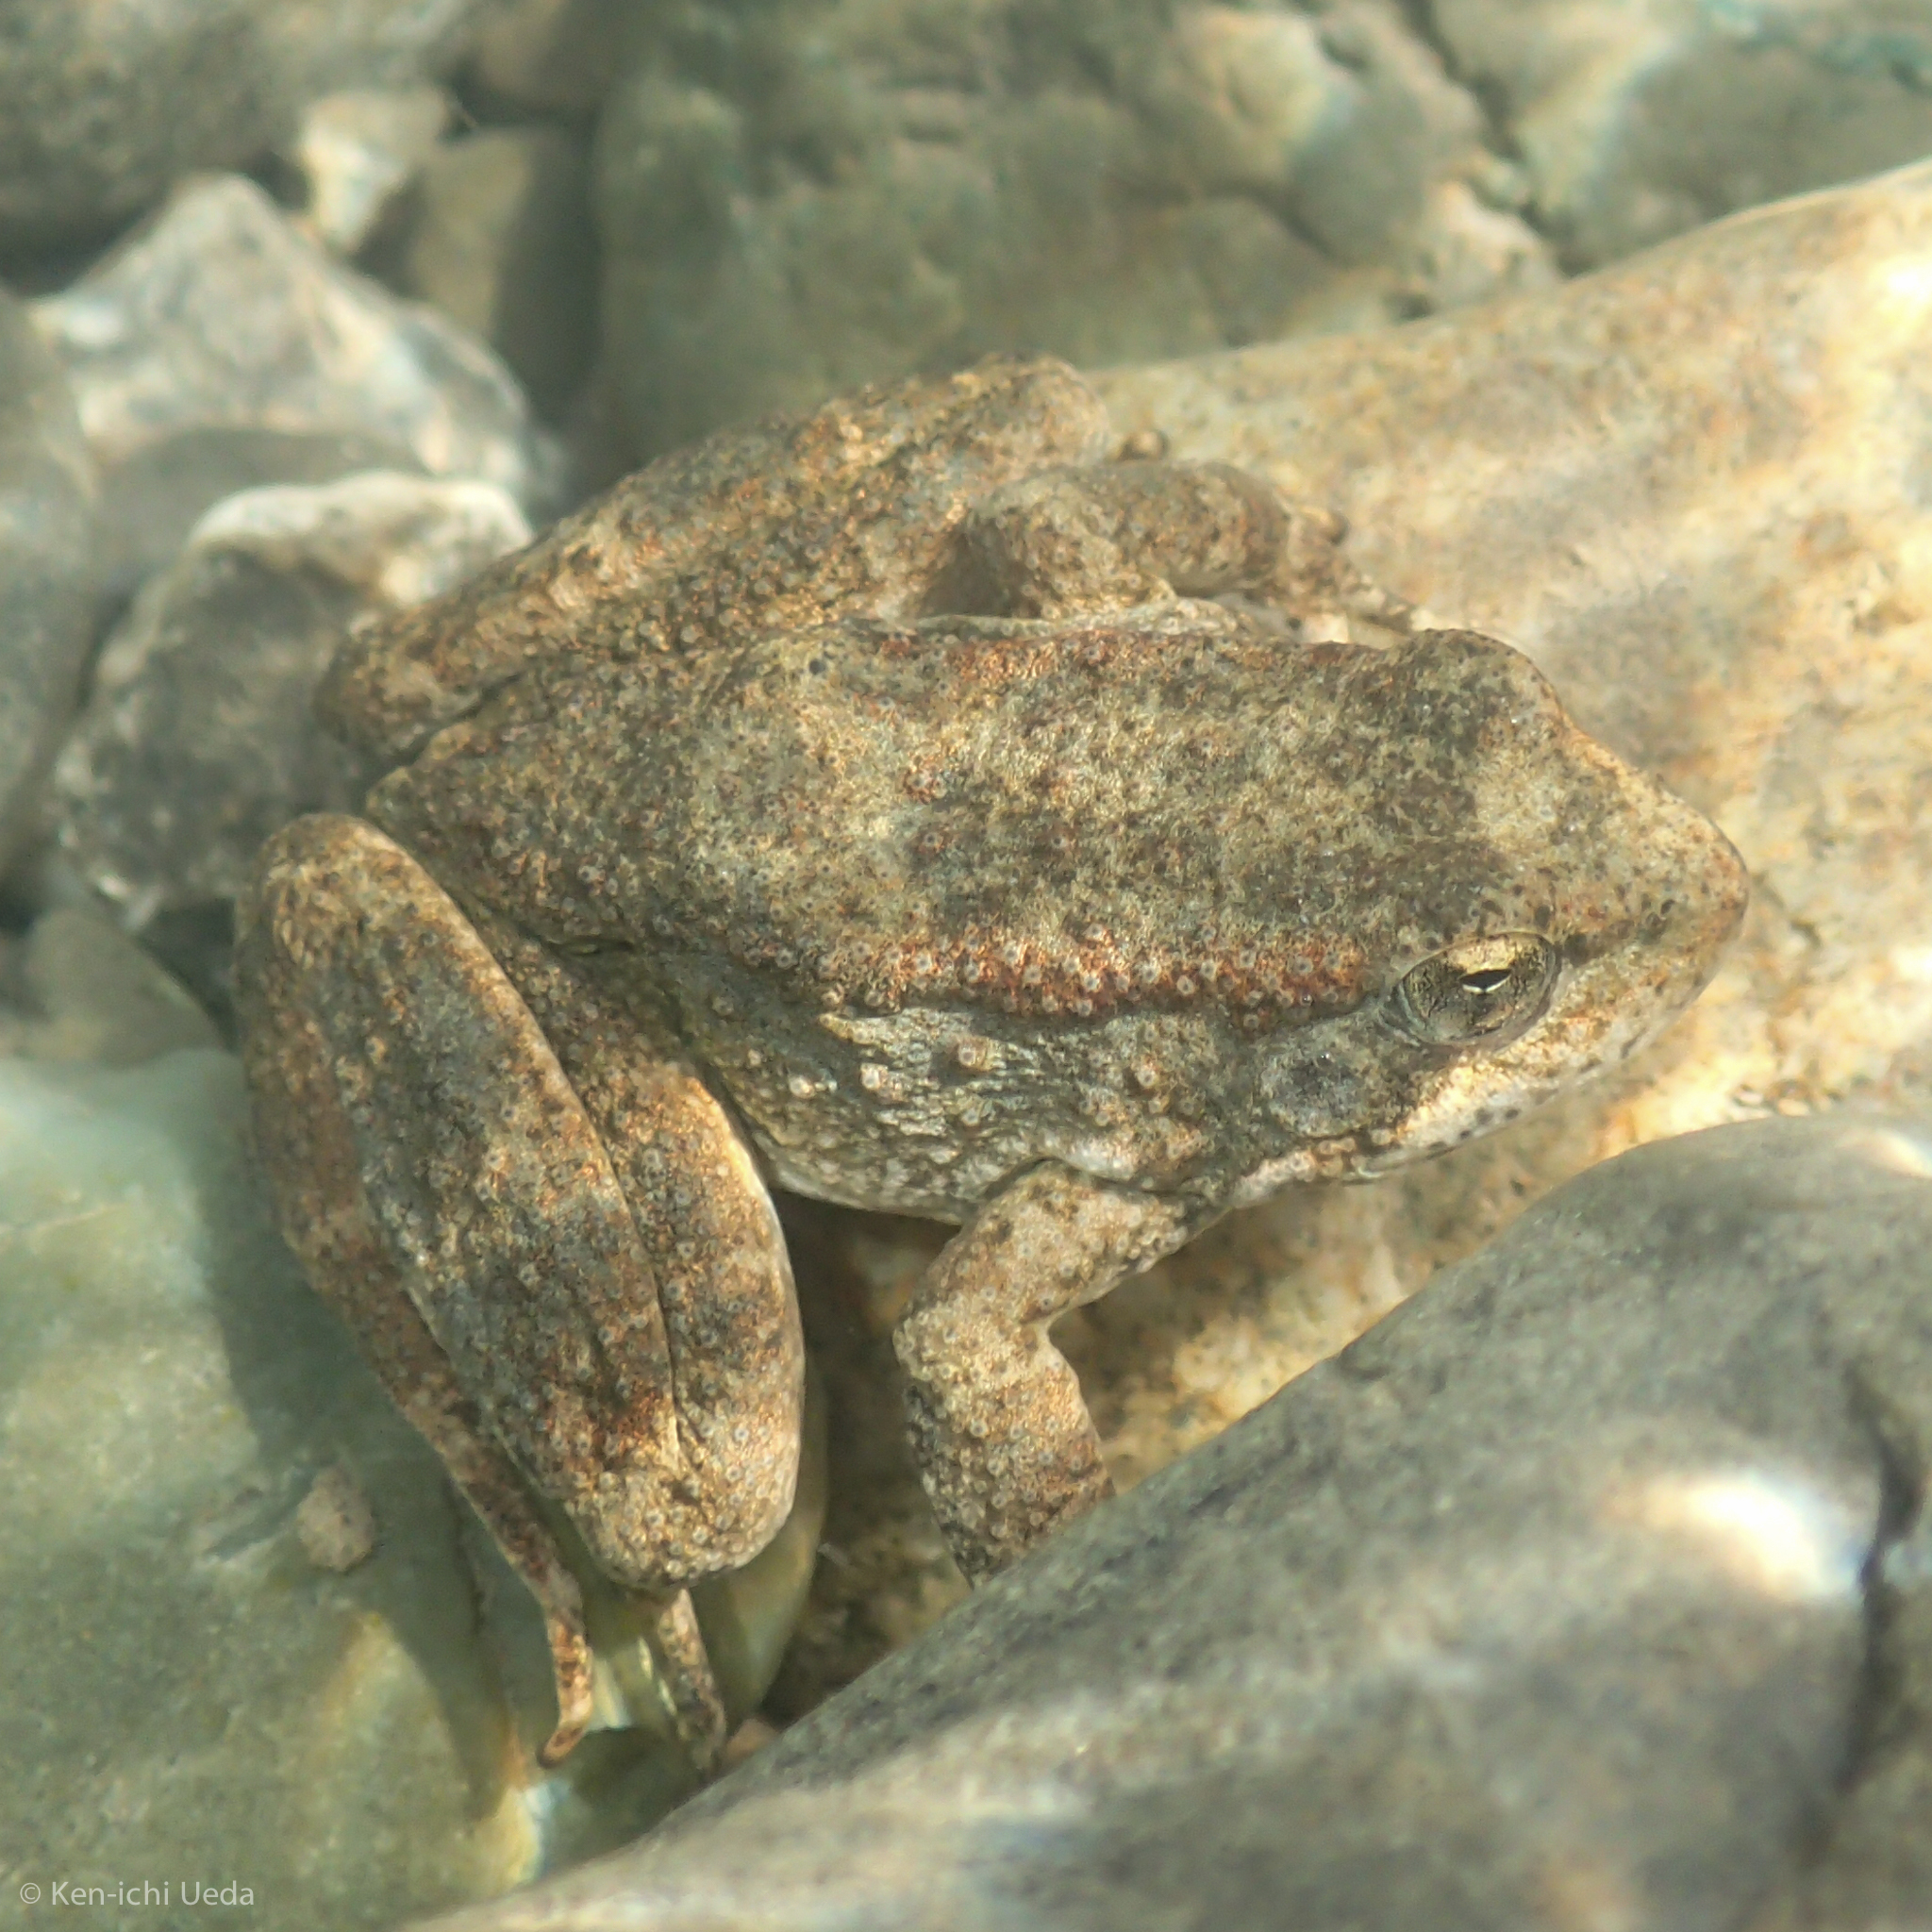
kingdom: Animalia
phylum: Chordata
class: Amphibia
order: Anura
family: Ranidae
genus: Rana
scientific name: Rana boylii
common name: Foothill yellow-legged frog
